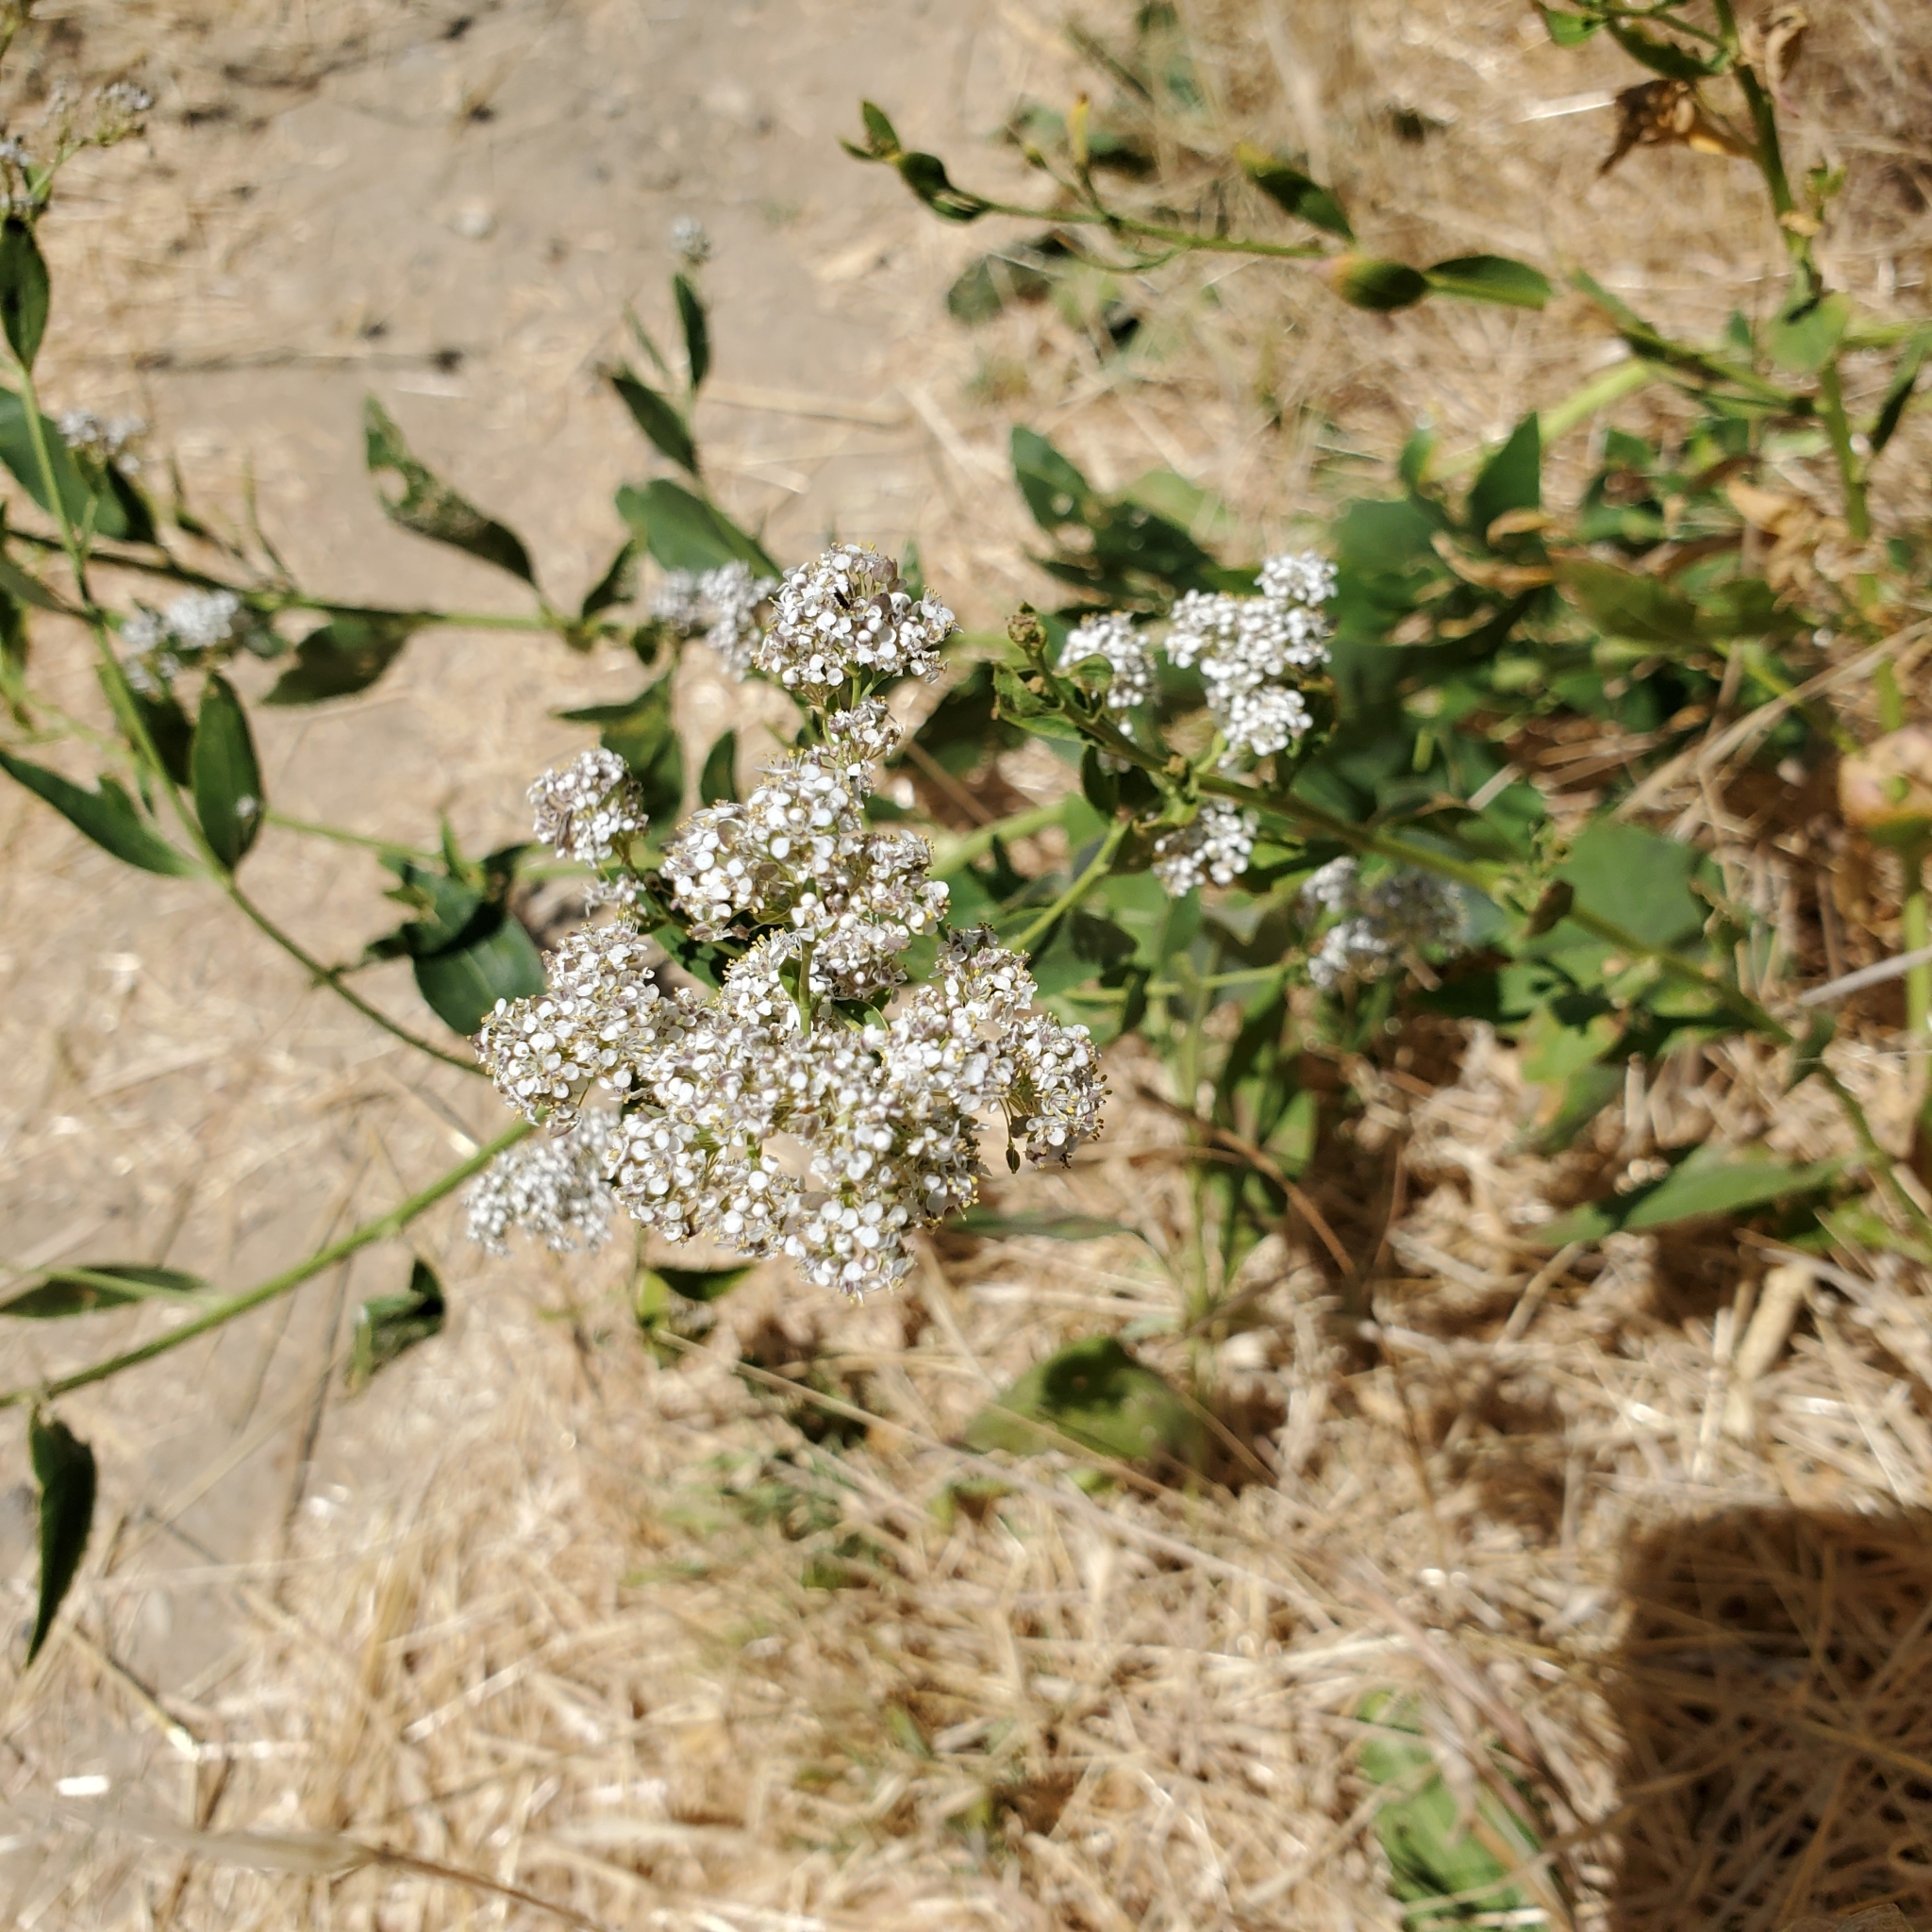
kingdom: Plantae
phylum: Tracheophyta
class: Magnoliopsida
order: Brassicales
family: Brassicaceae
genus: Lepidium
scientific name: Lepidium latifolium
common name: Dittander
